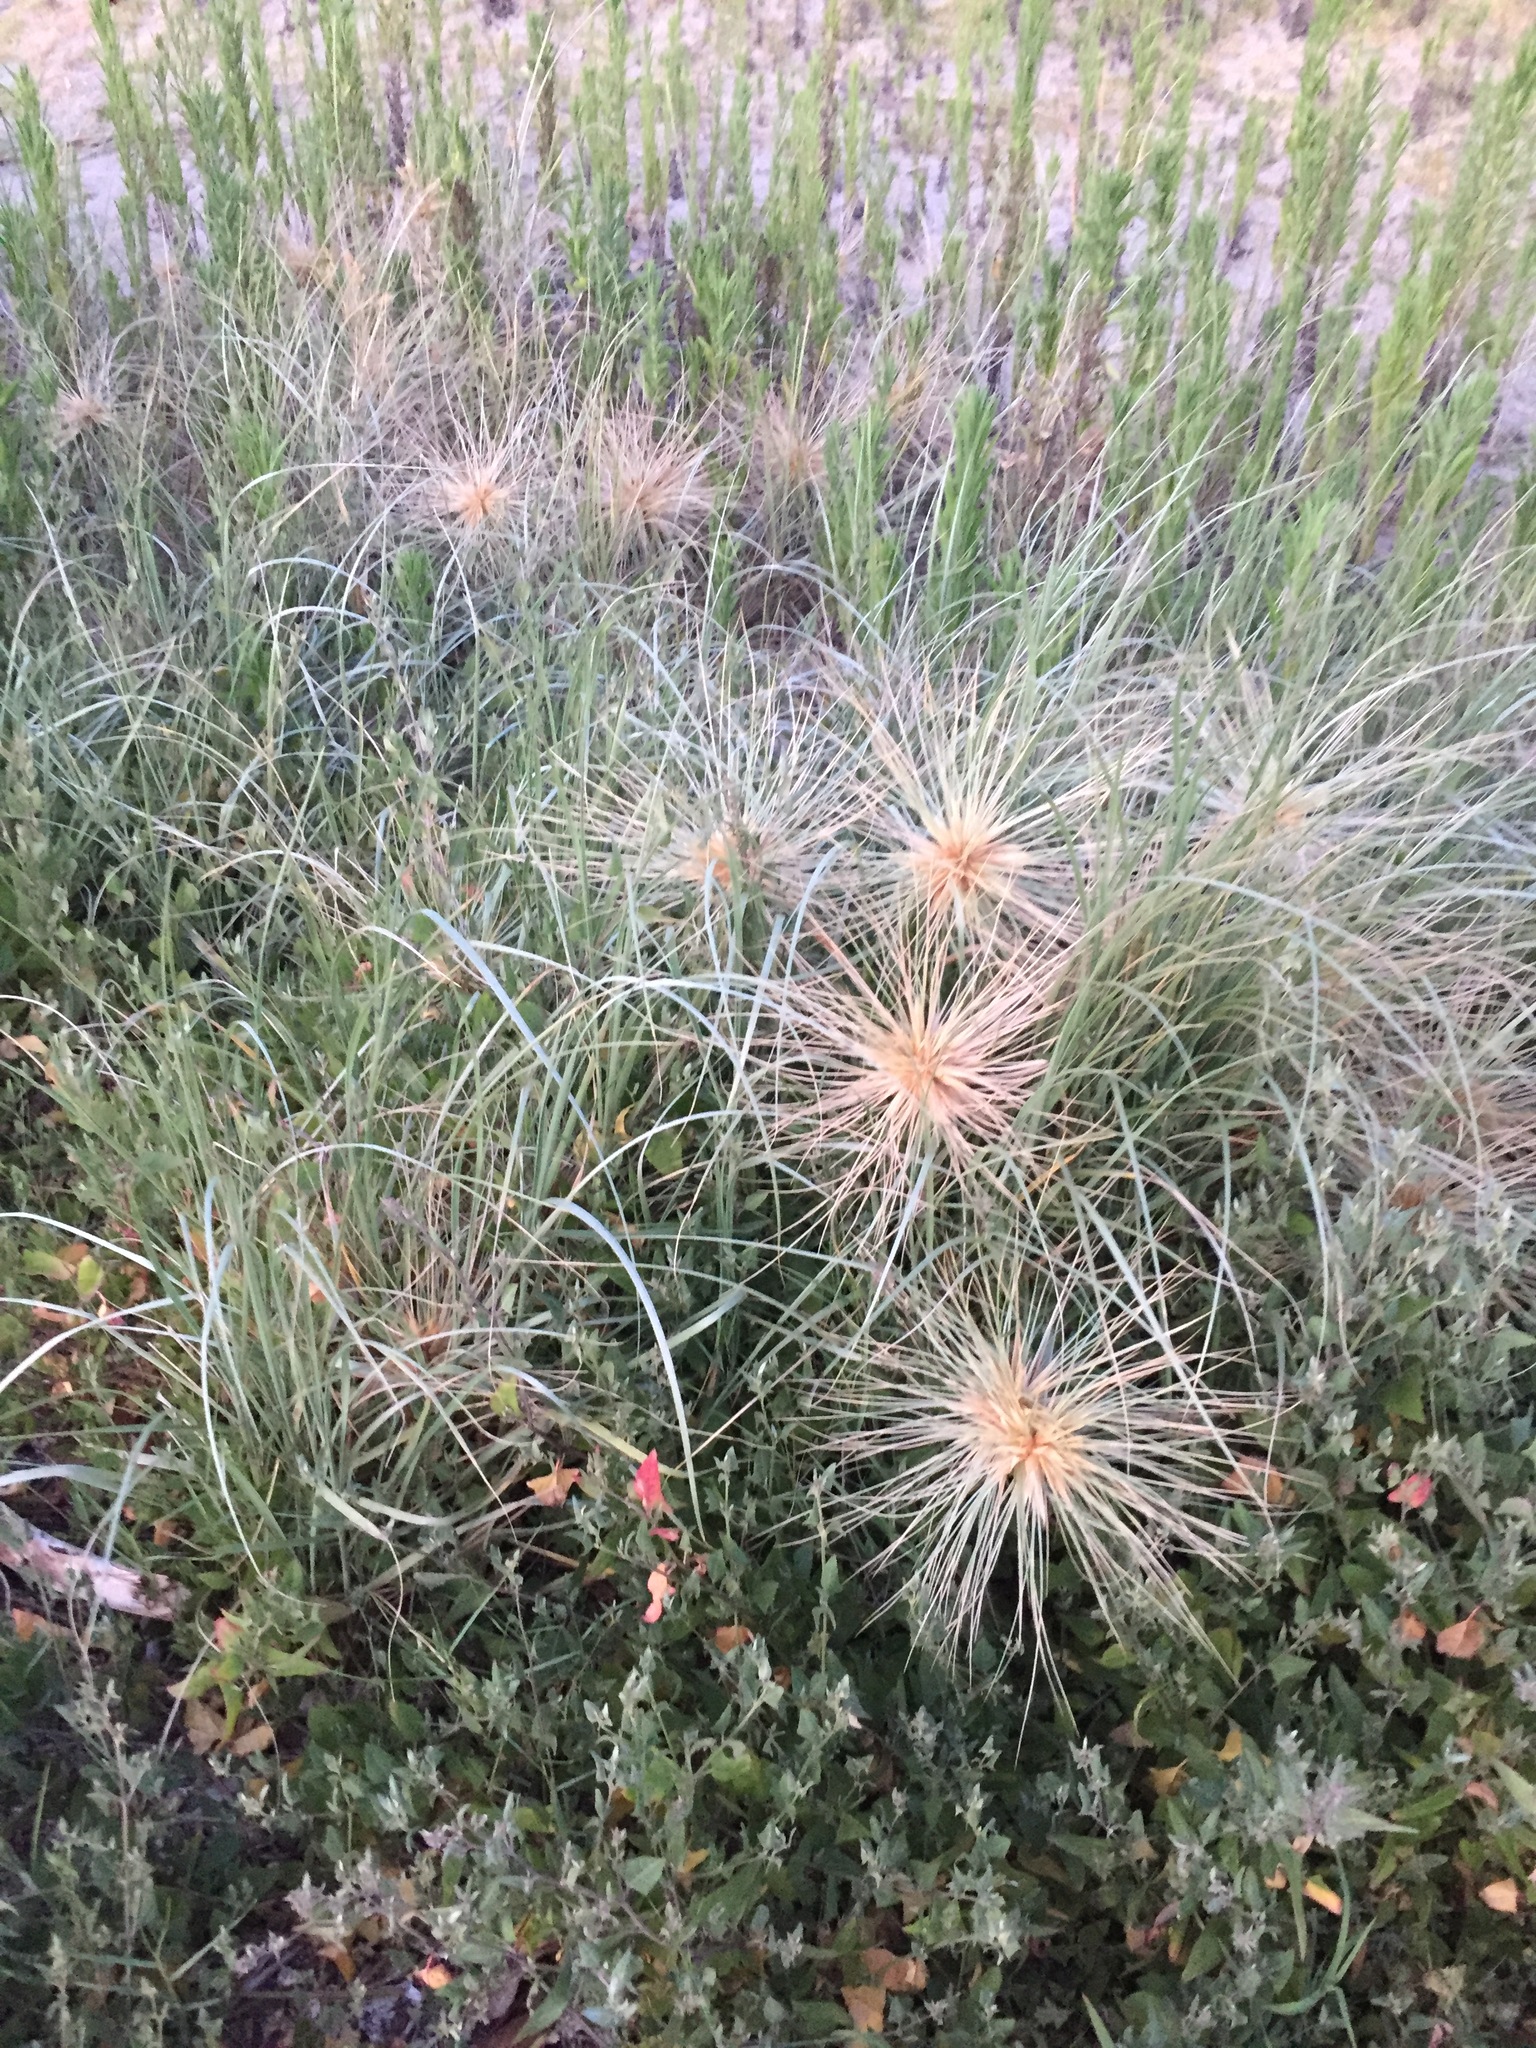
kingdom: Plantae
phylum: Tracheophyta
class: Liliopsida
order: Poales
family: Poaceae
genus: Spinifex
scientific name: Spinifex sericeus
